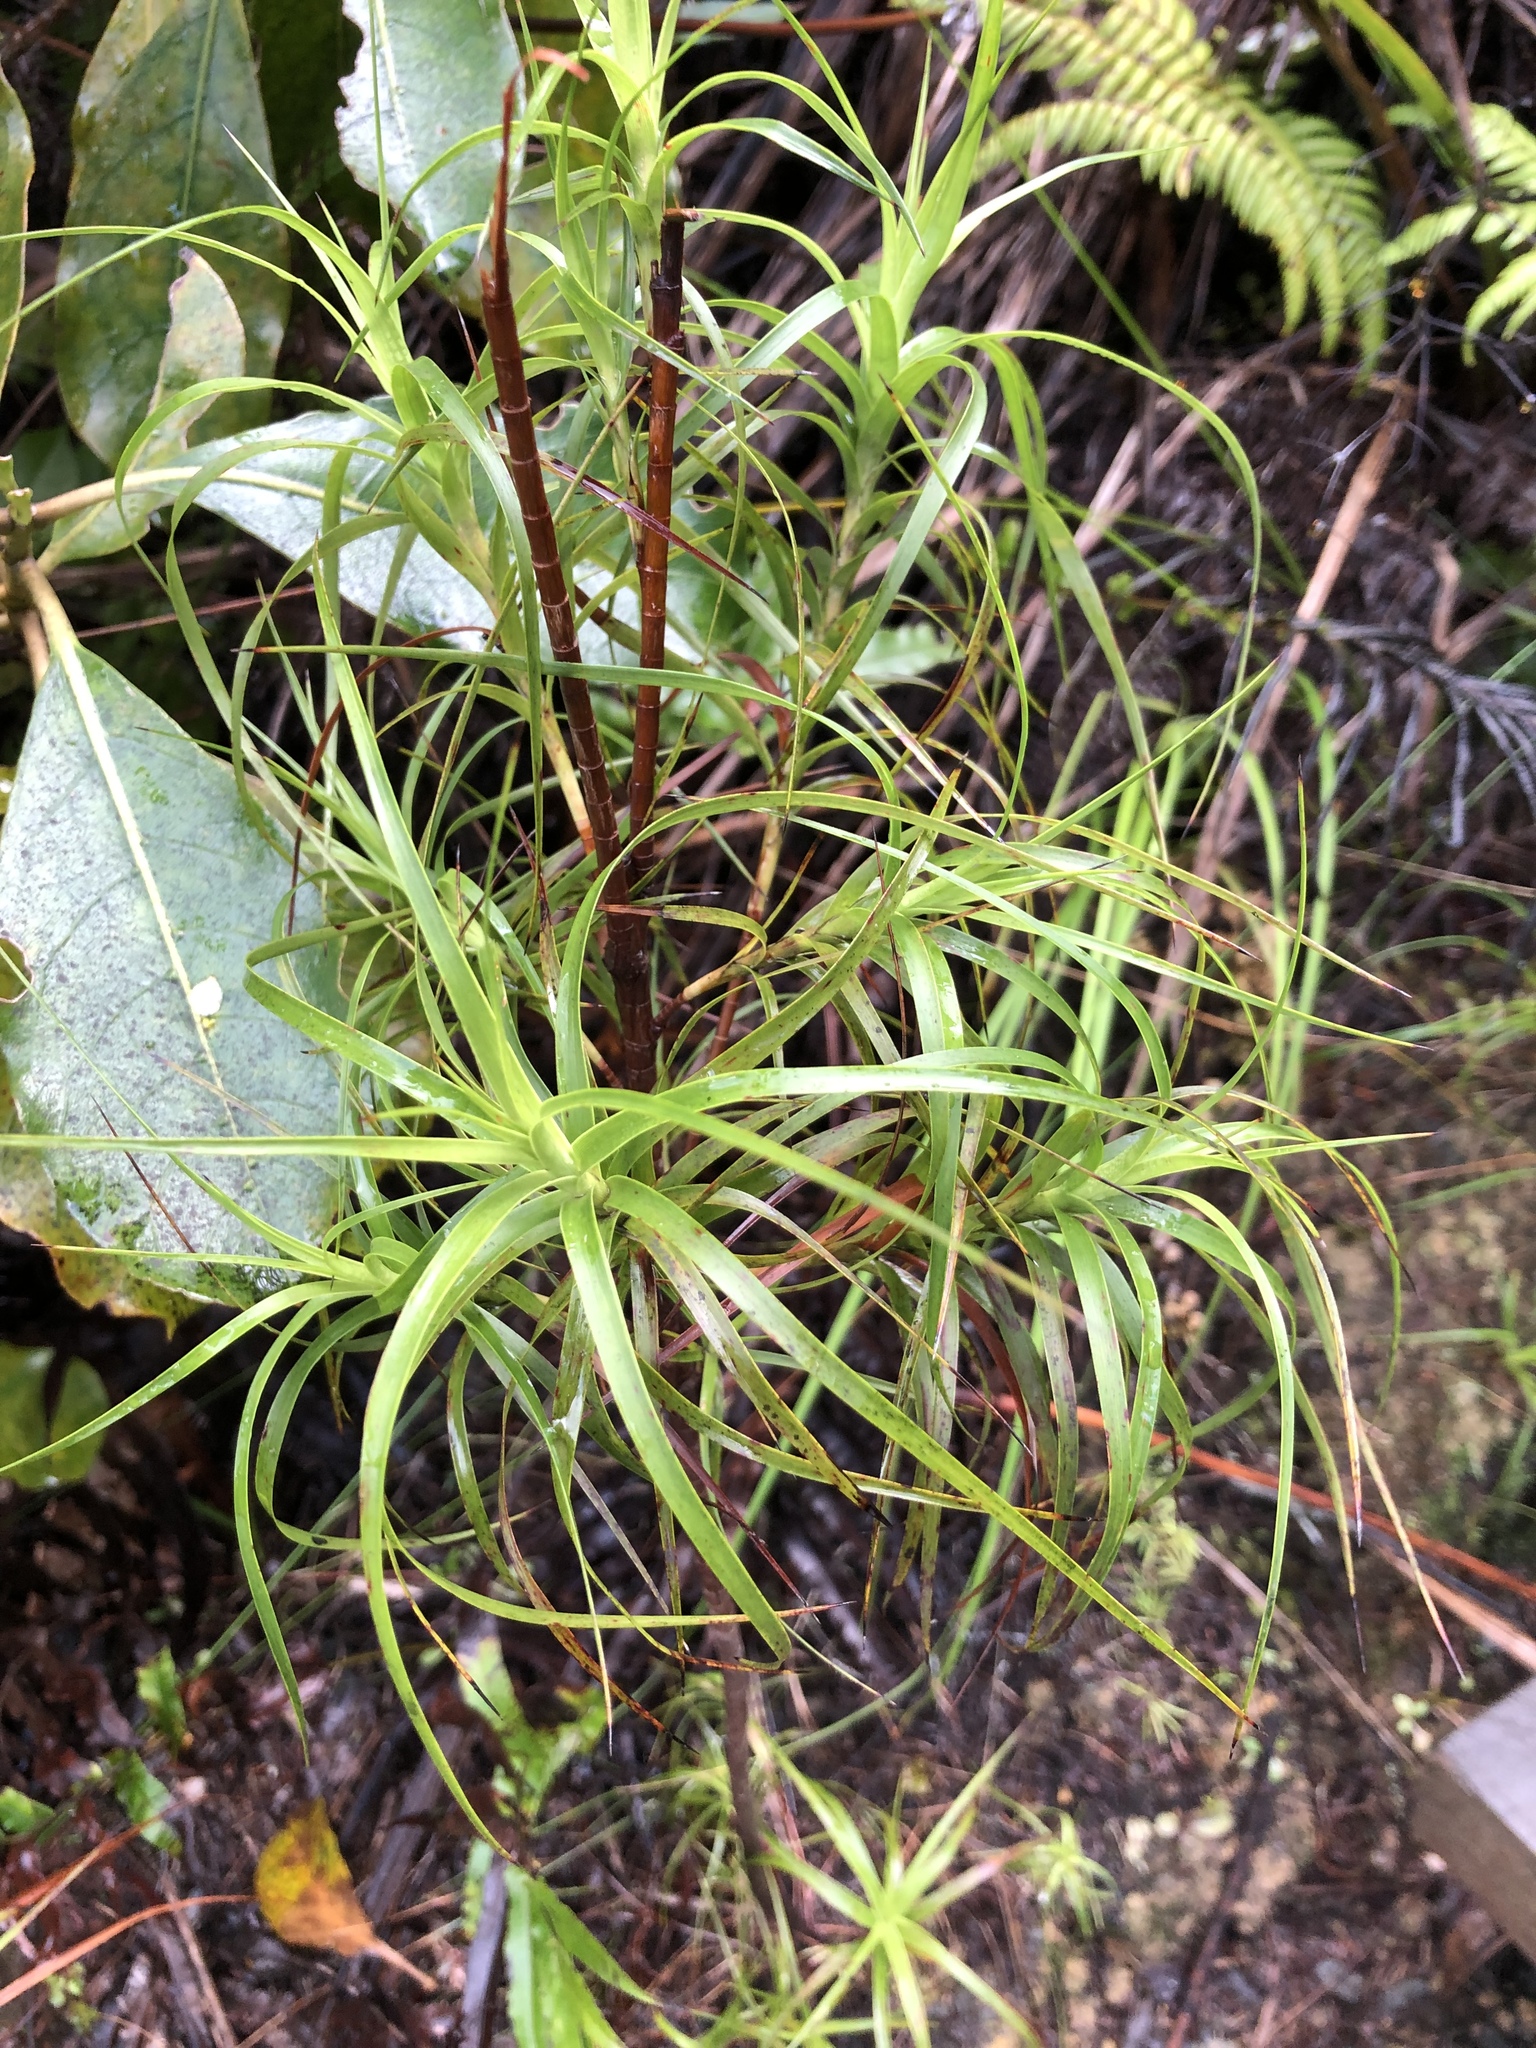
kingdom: Plantae
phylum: Tracheophyta
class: Magnoliopsida
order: Ericales
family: Ericaceae
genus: Dracophyllum
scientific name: Dracophyllum sinclairii
